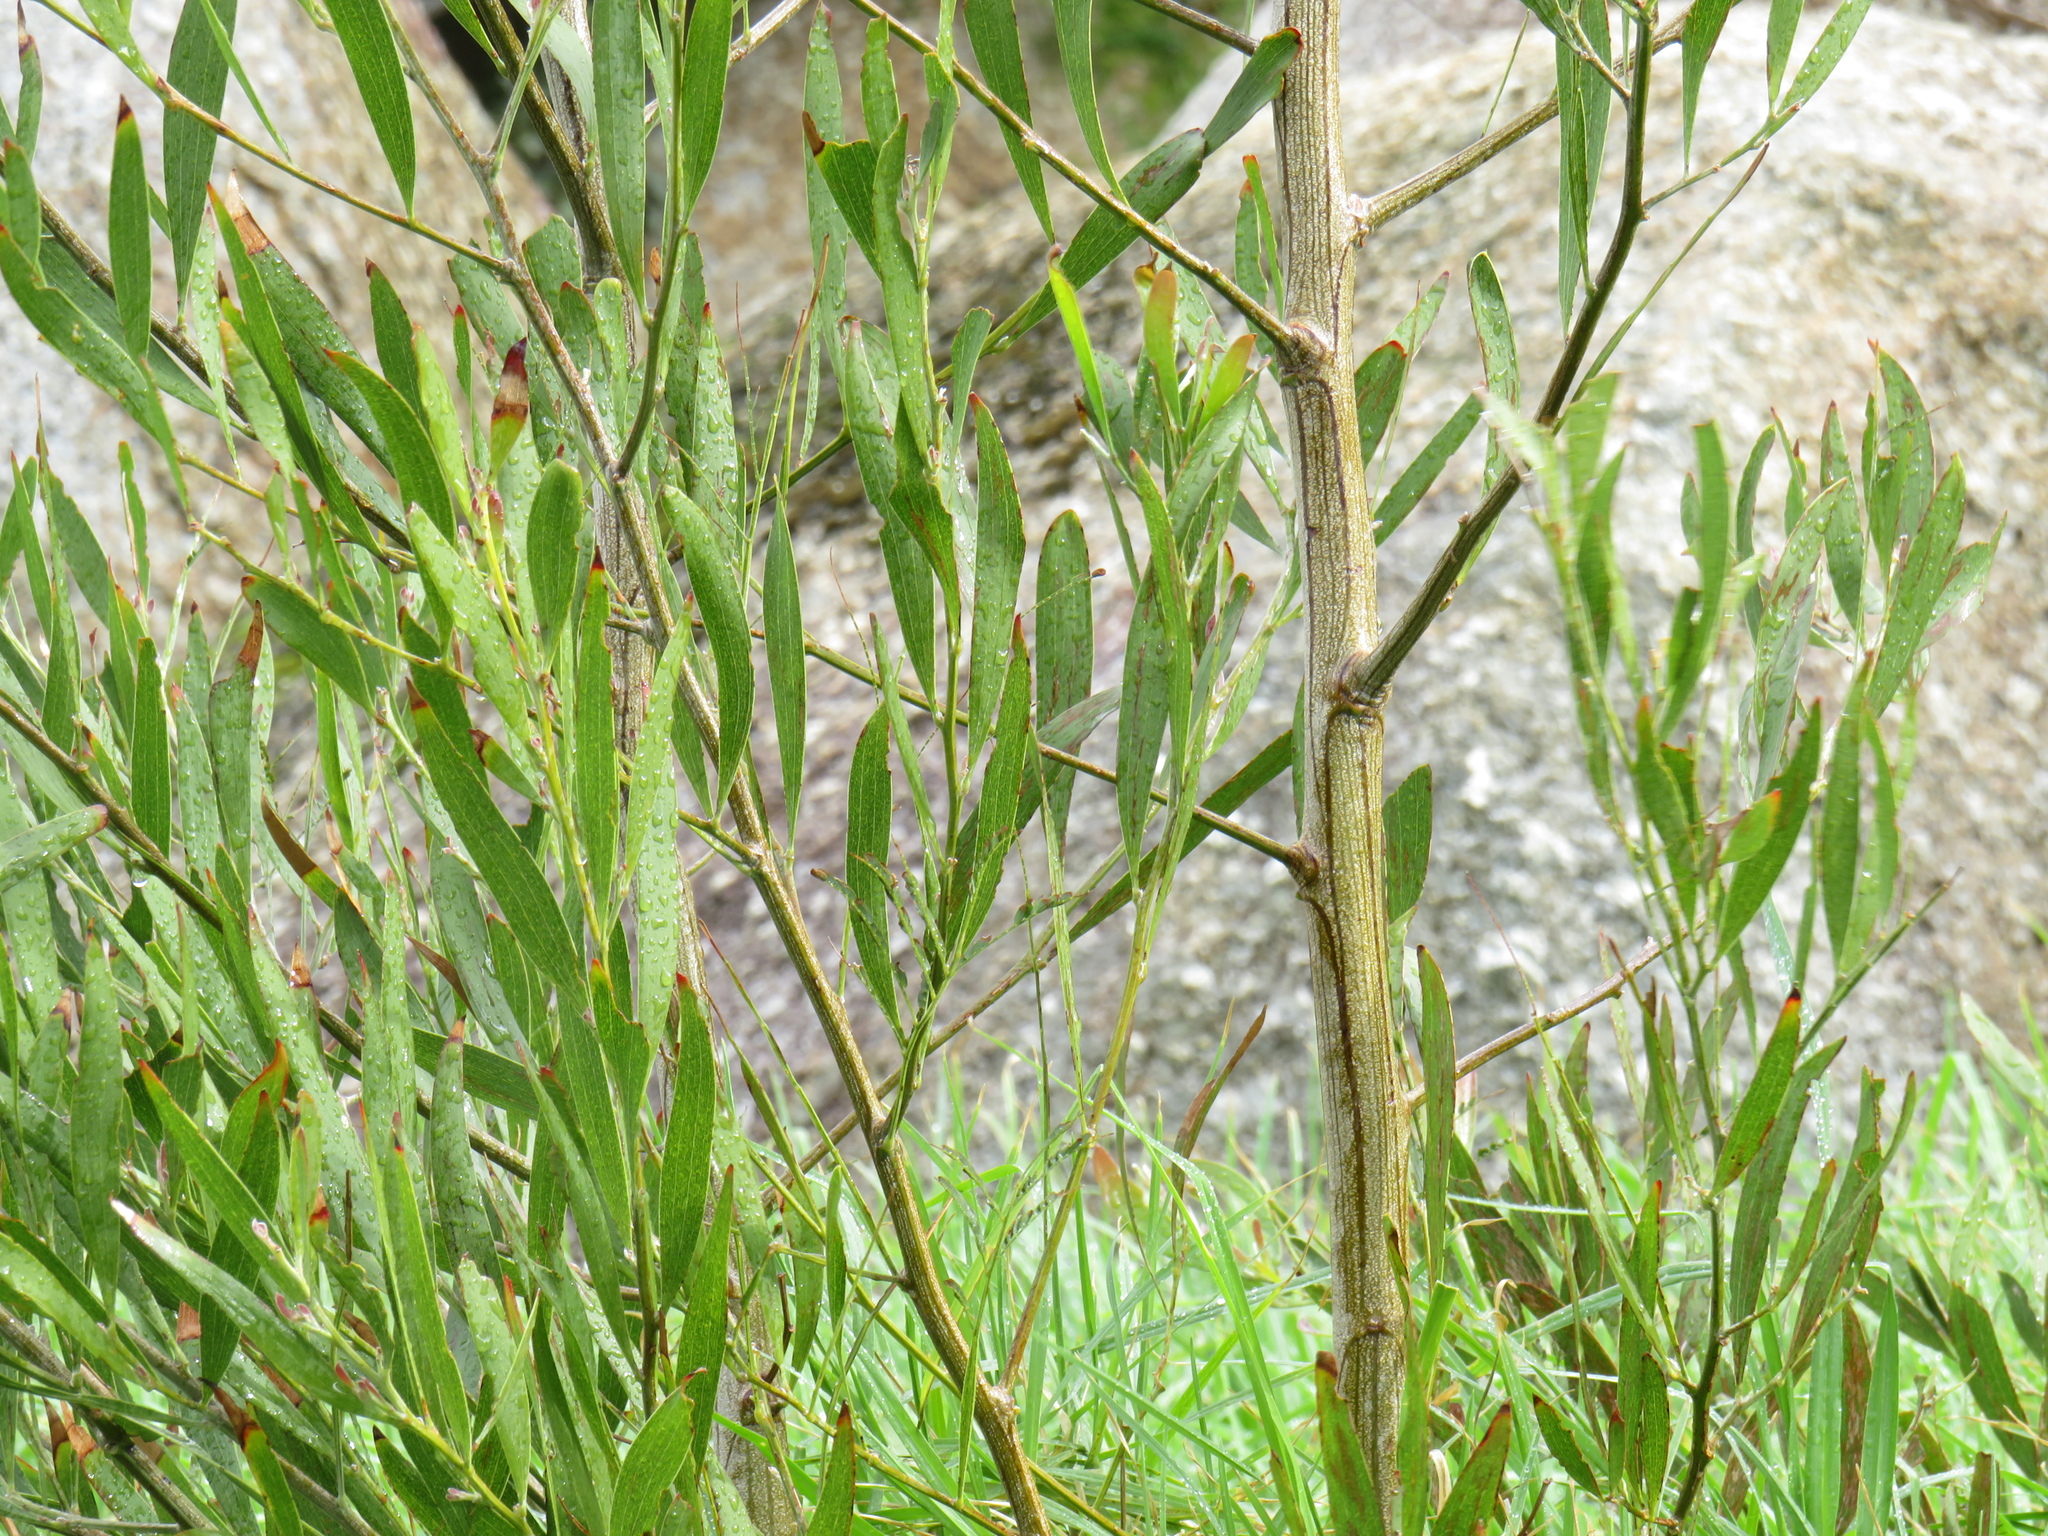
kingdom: Plantae
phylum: Tracheophyta
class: Magnoliopsida
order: Fabales
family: Fabaceae
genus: Acacia
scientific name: Acacia melanoxylon
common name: Blackwood
